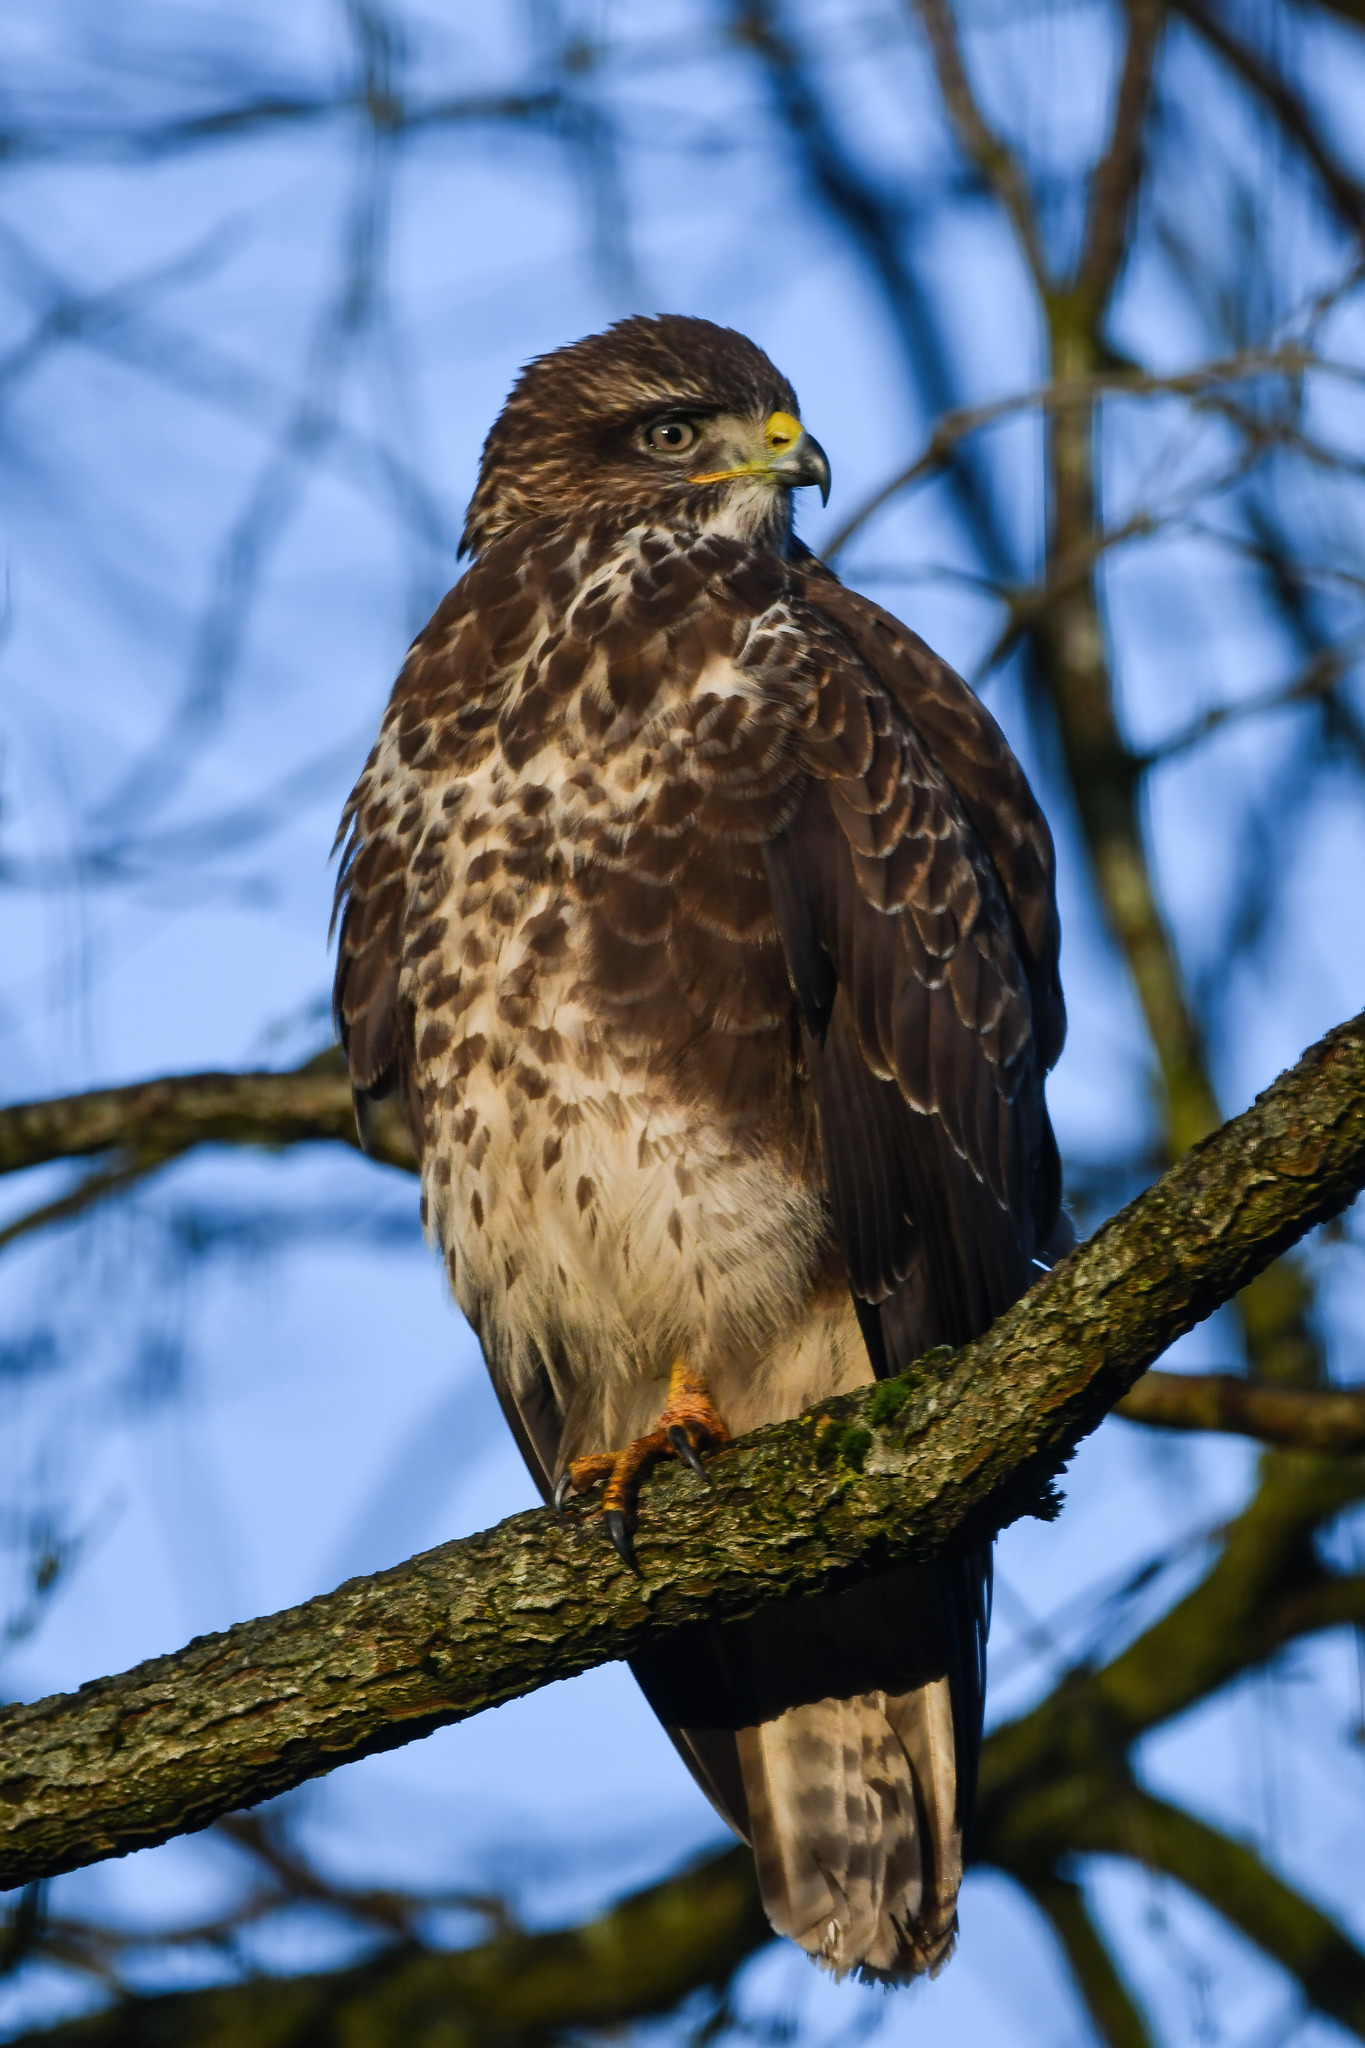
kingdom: Animalia
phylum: Chordata
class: Aves
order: Accipitriformes
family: Accipitridae
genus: Buteo
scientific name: Buteo buteo
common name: Common buzzard
